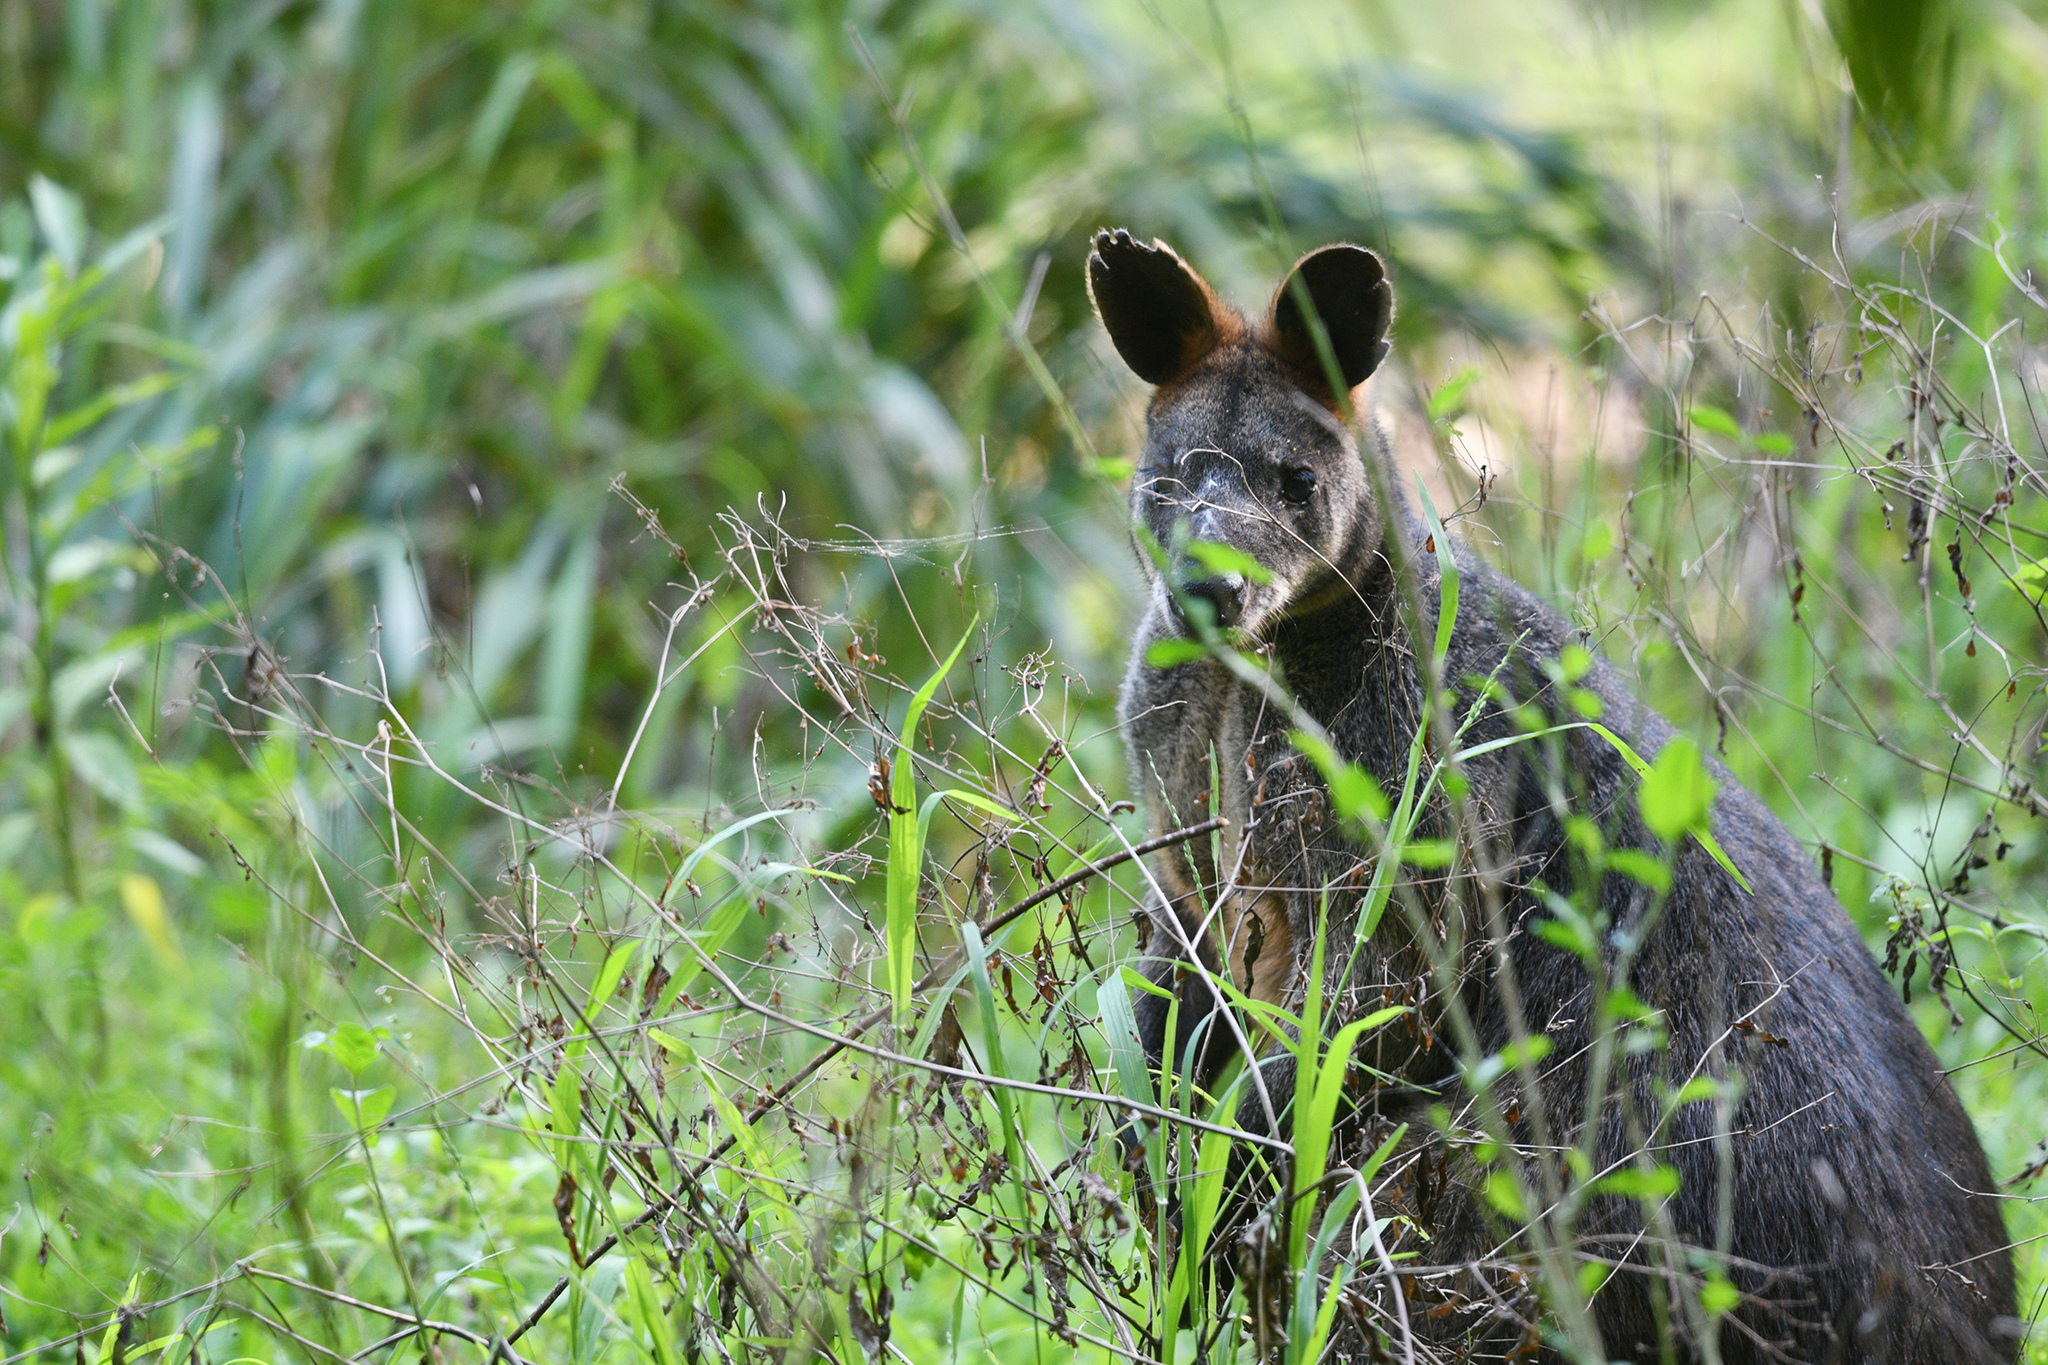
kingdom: Animalia
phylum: Chordata
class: Mammalia
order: Diprotodontia
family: Macropodidae
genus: Wallabia
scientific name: Wallabia bicolor
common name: Swamp wallaby
